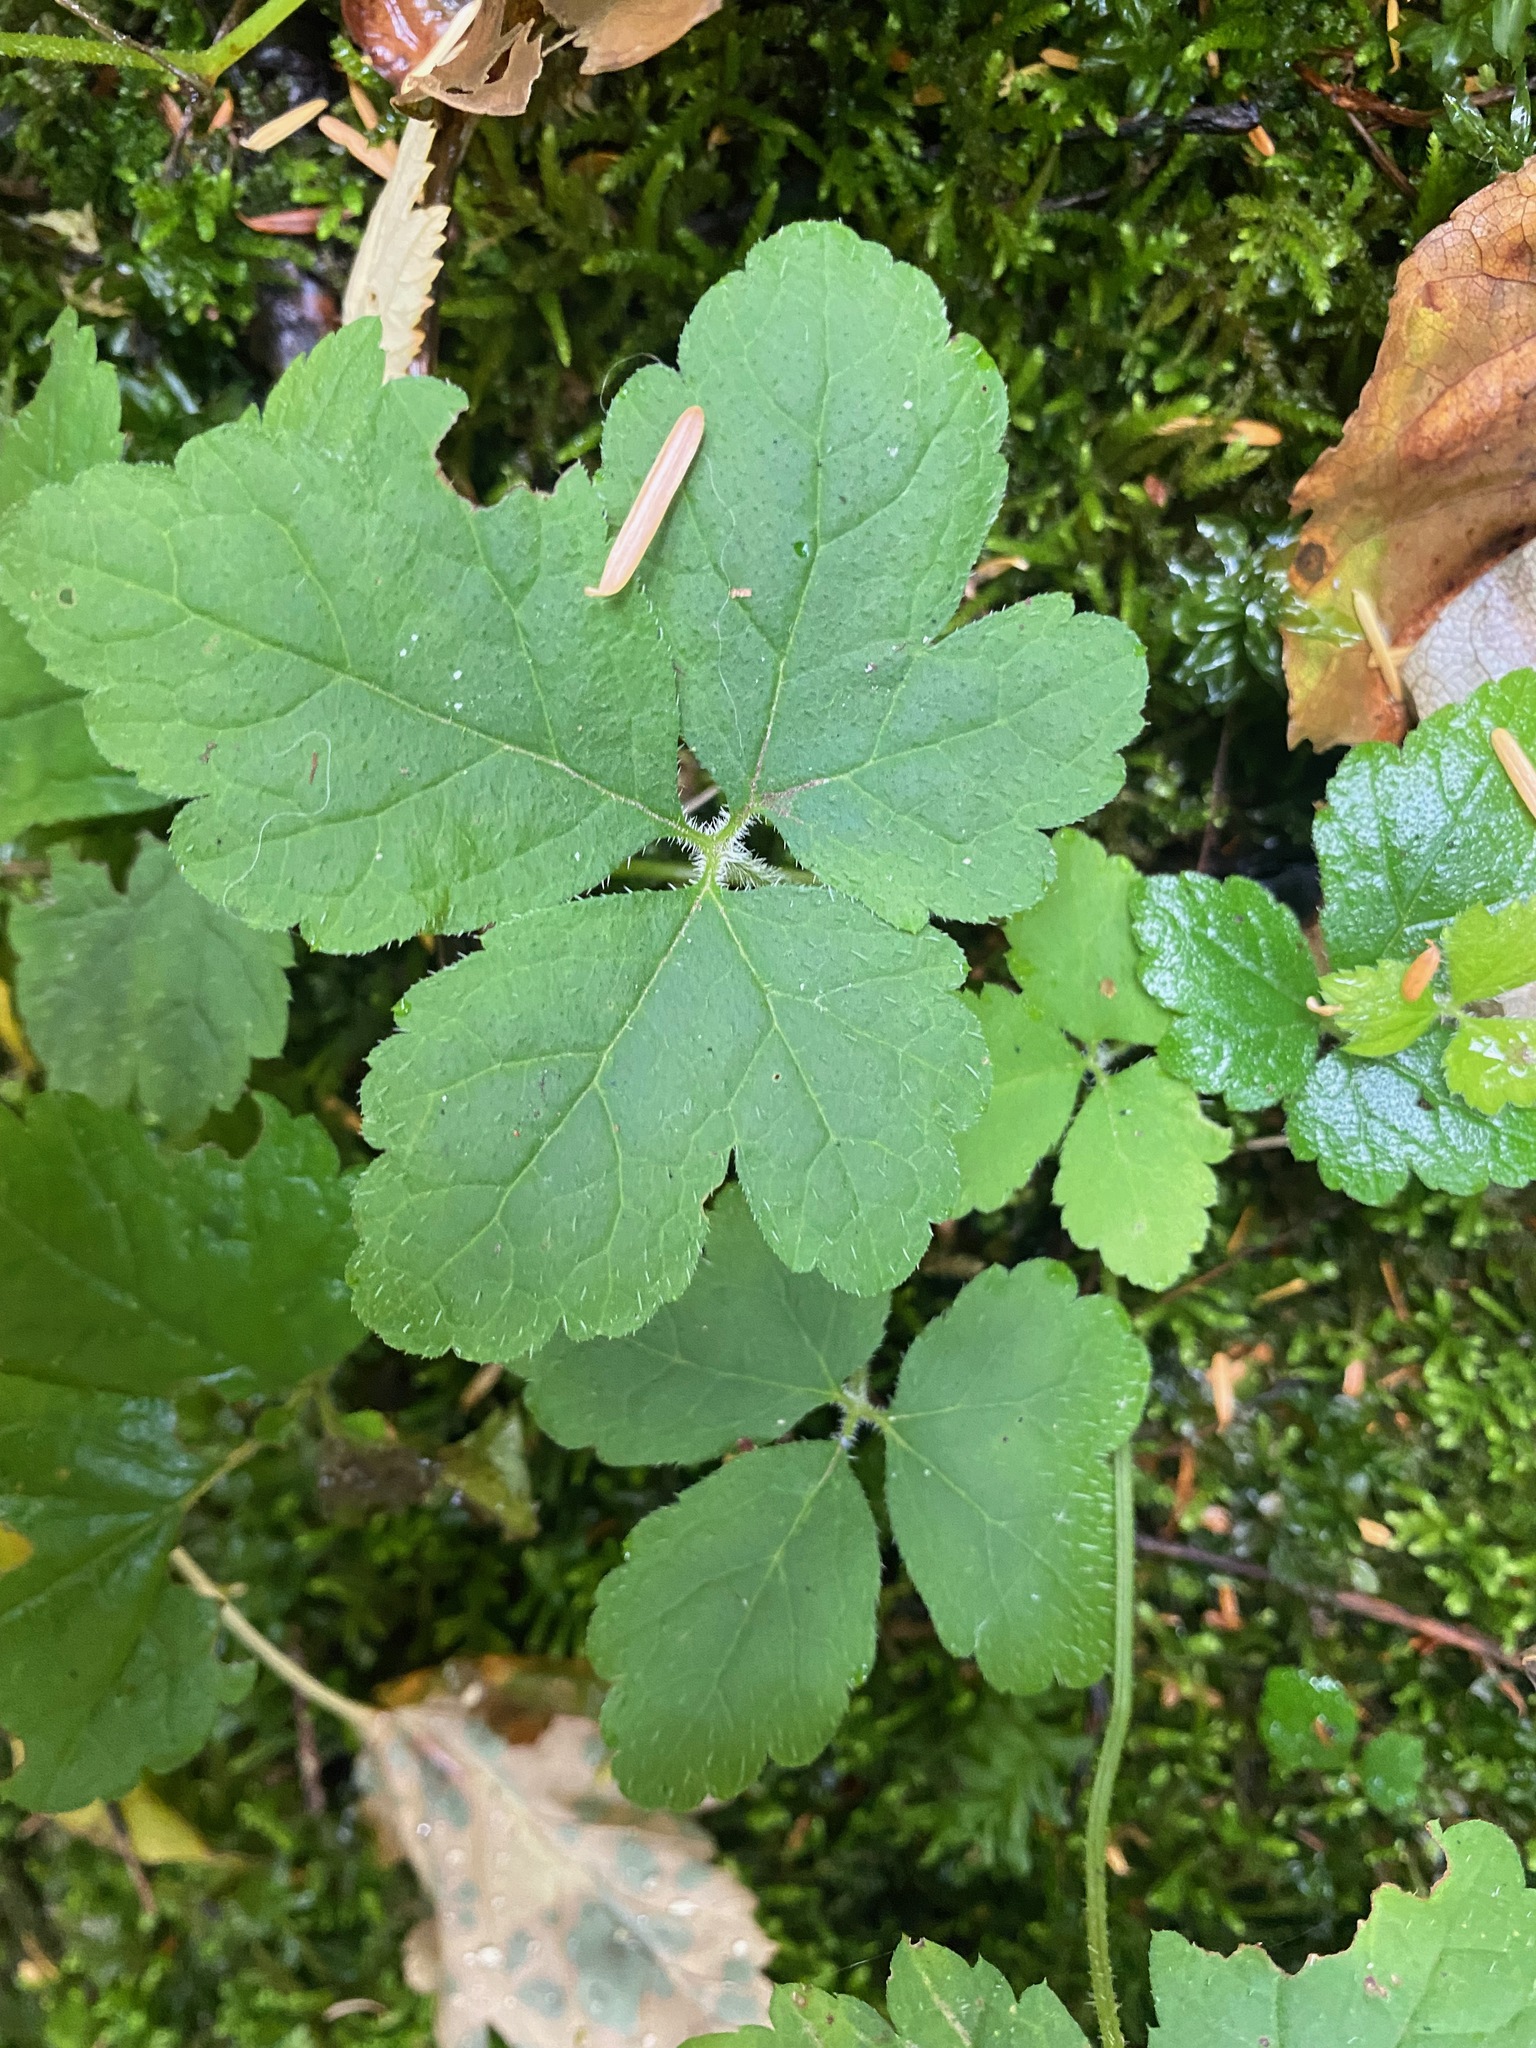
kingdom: Plantae
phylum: Tracheophyta
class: Magnoliopsida
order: Saxifragales
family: Saxifragaceae
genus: Tiarella
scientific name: Tiarella trifoliata
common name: Sugar-scoop
